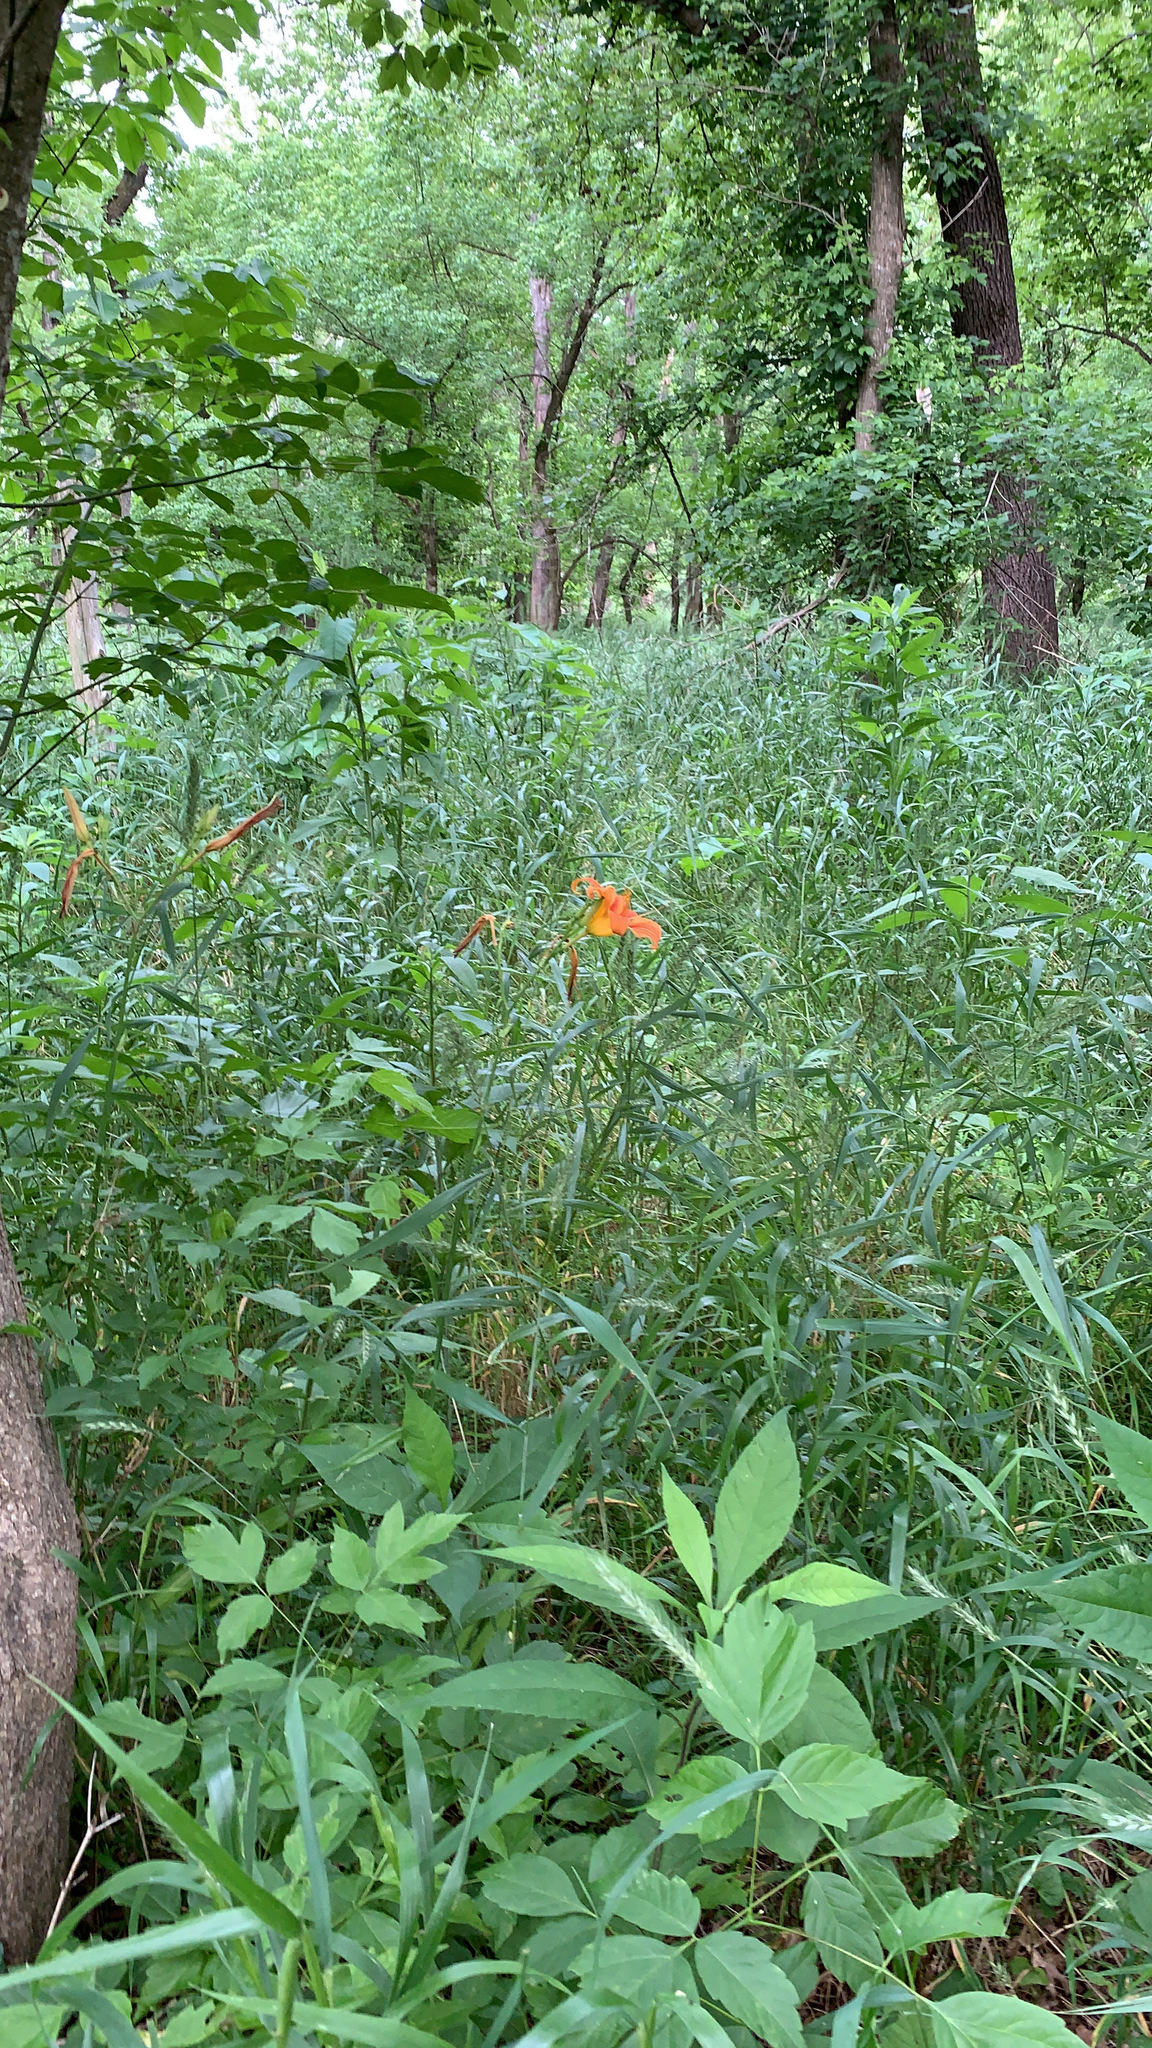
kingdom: Plantae
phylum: Tracheophyta
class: Liliopsida
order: Asparagales
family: Asphodelaceae
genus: Hemerocallis
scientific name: Hemerocallis fulva
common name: Orange day-lily
